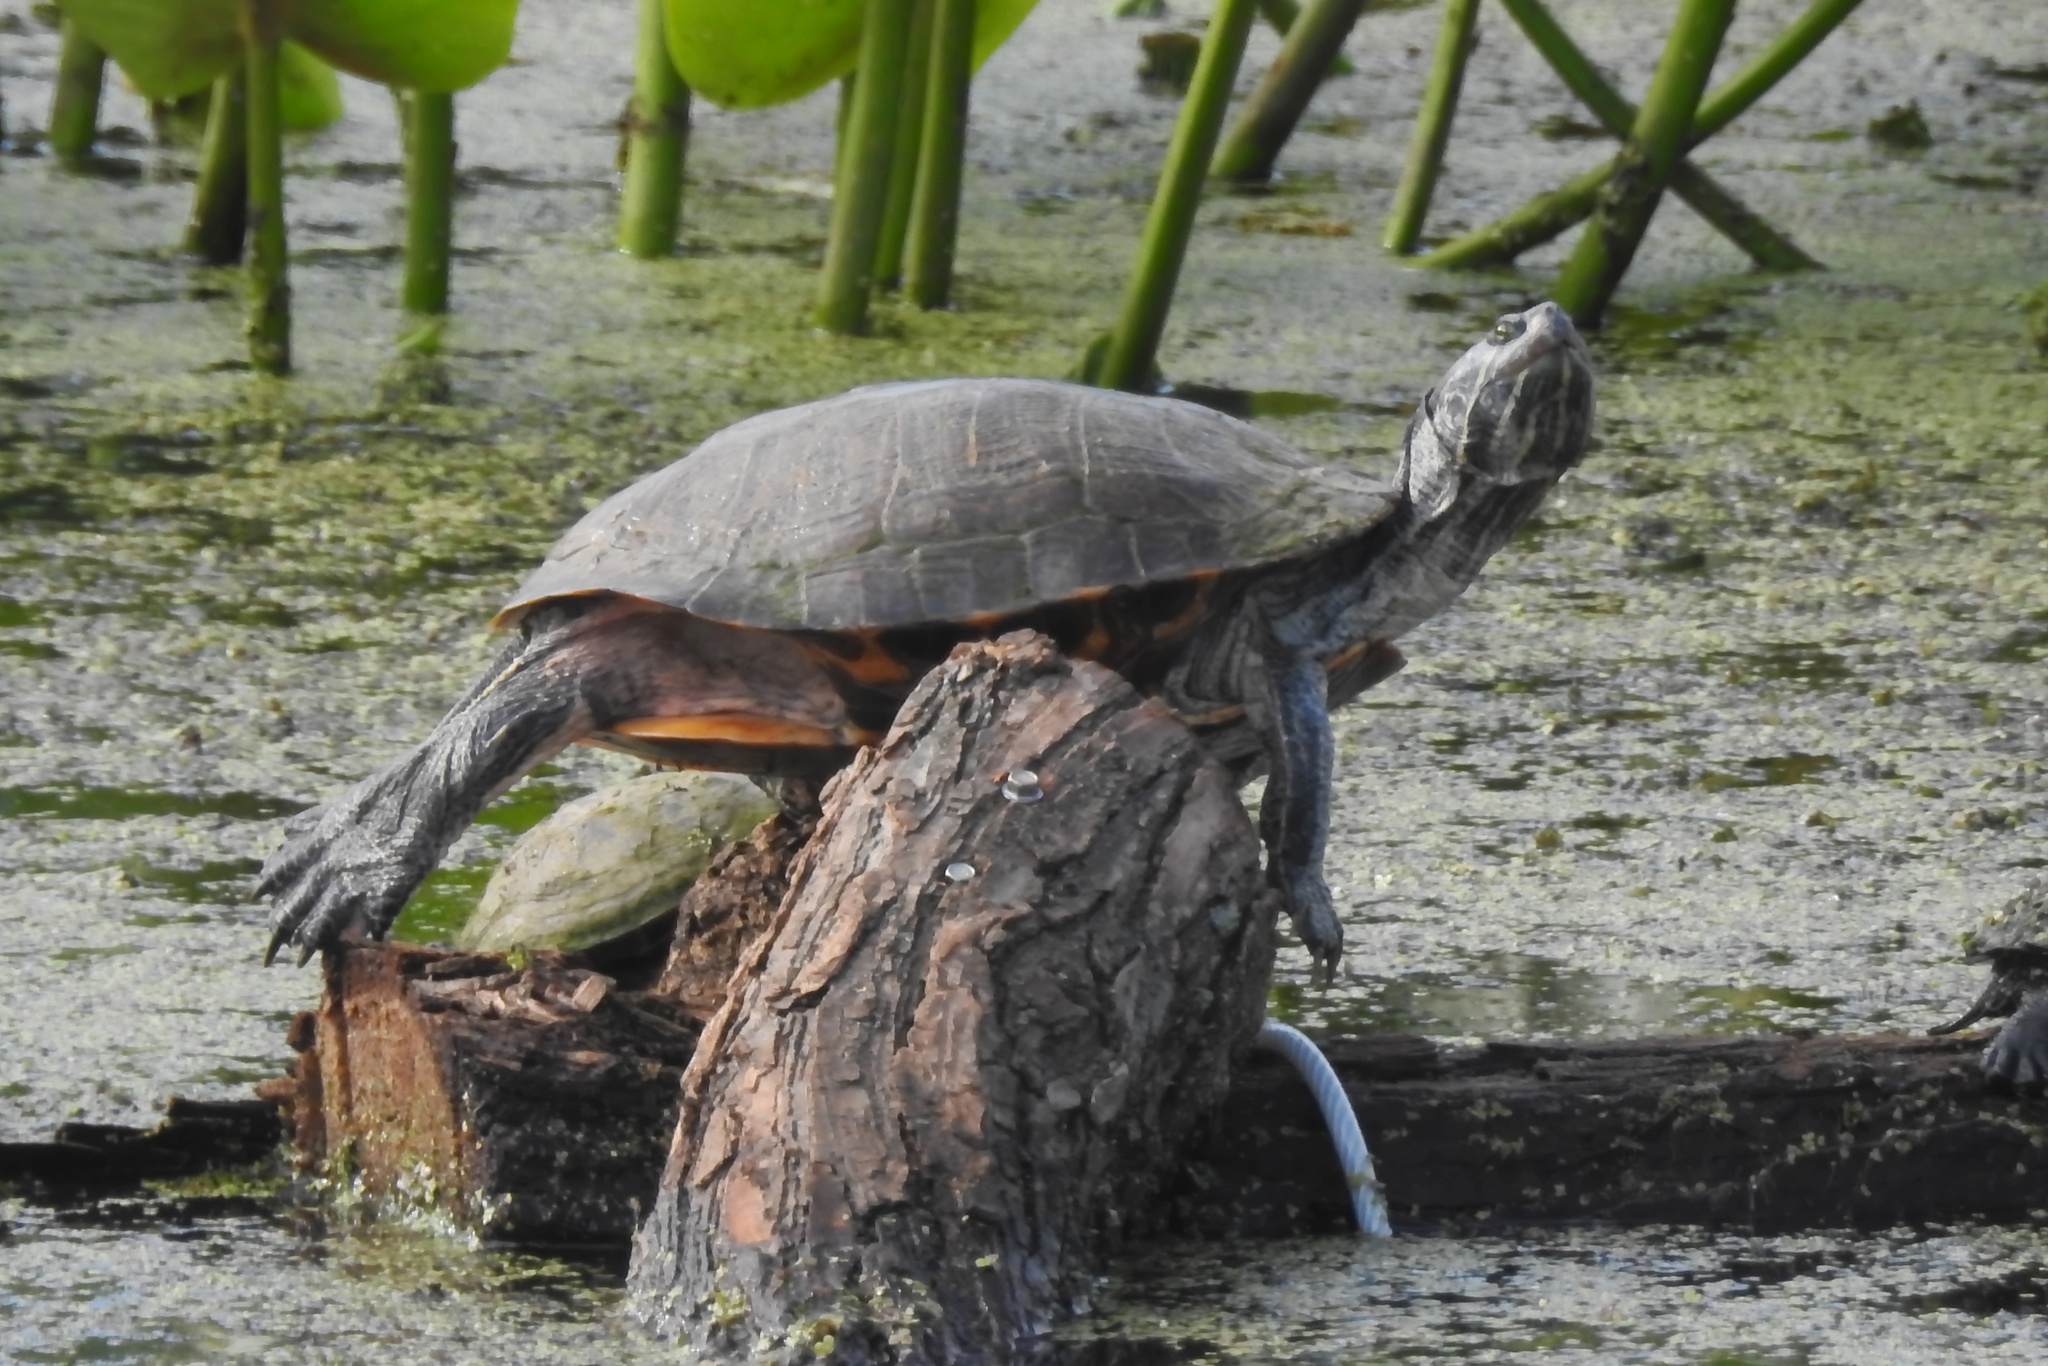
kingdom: Animalia
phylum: Chordata
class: Testudines
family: Emydidae
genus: Pseudemys
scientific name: Pseudemys rubriventris
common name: American red-bellied turtle
